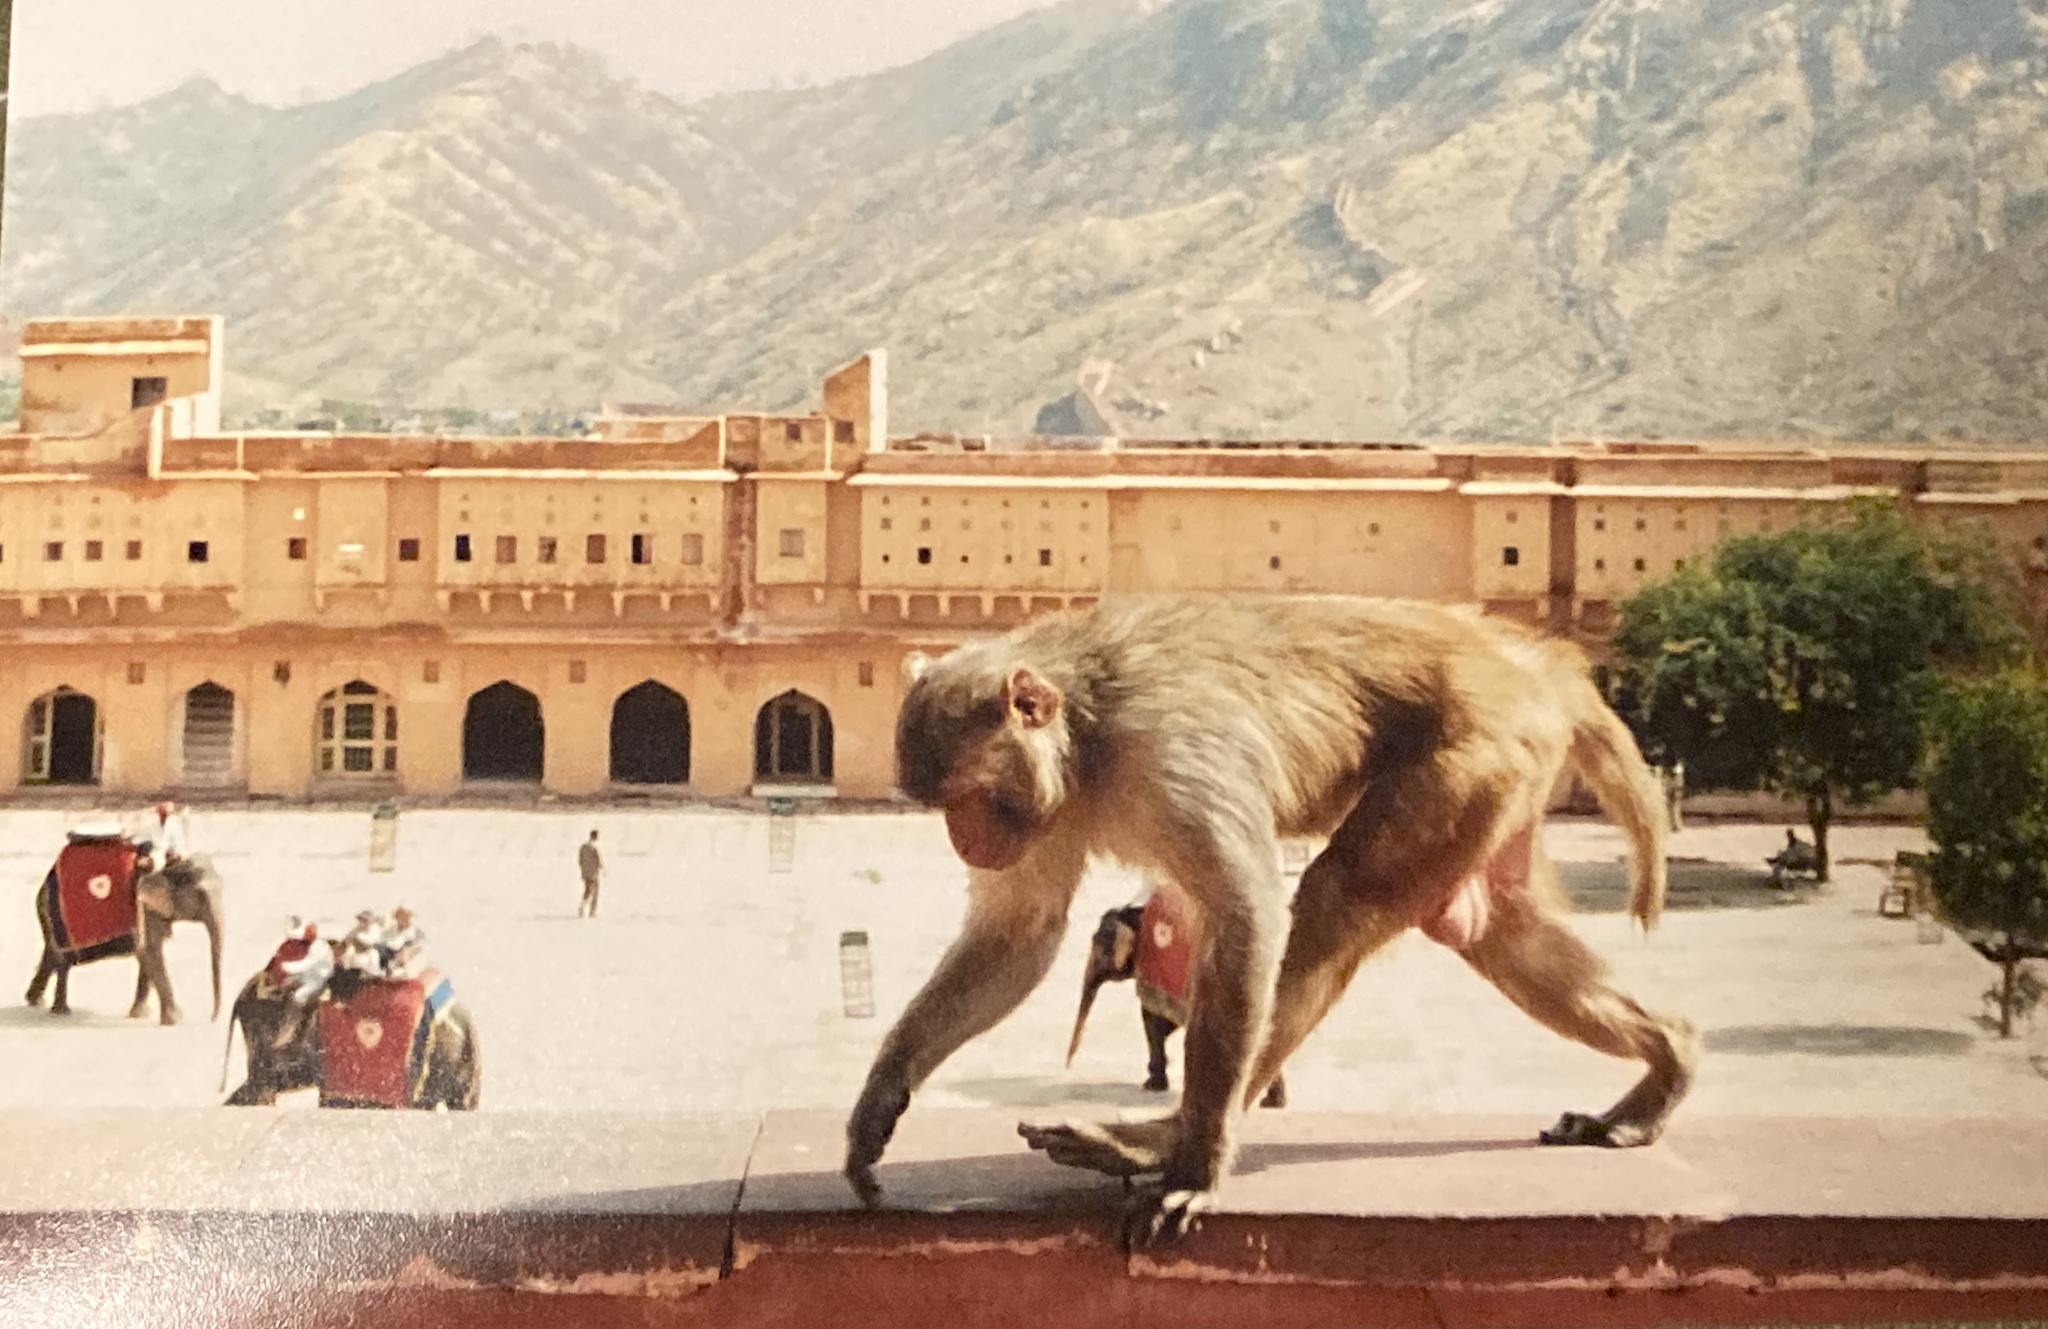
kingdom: Animalia
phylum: Chordata
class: Mammalia
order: Primates
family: Cercopithecidae
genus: Macaca
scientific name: Macaca mulatta
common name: Rhesus monkey
